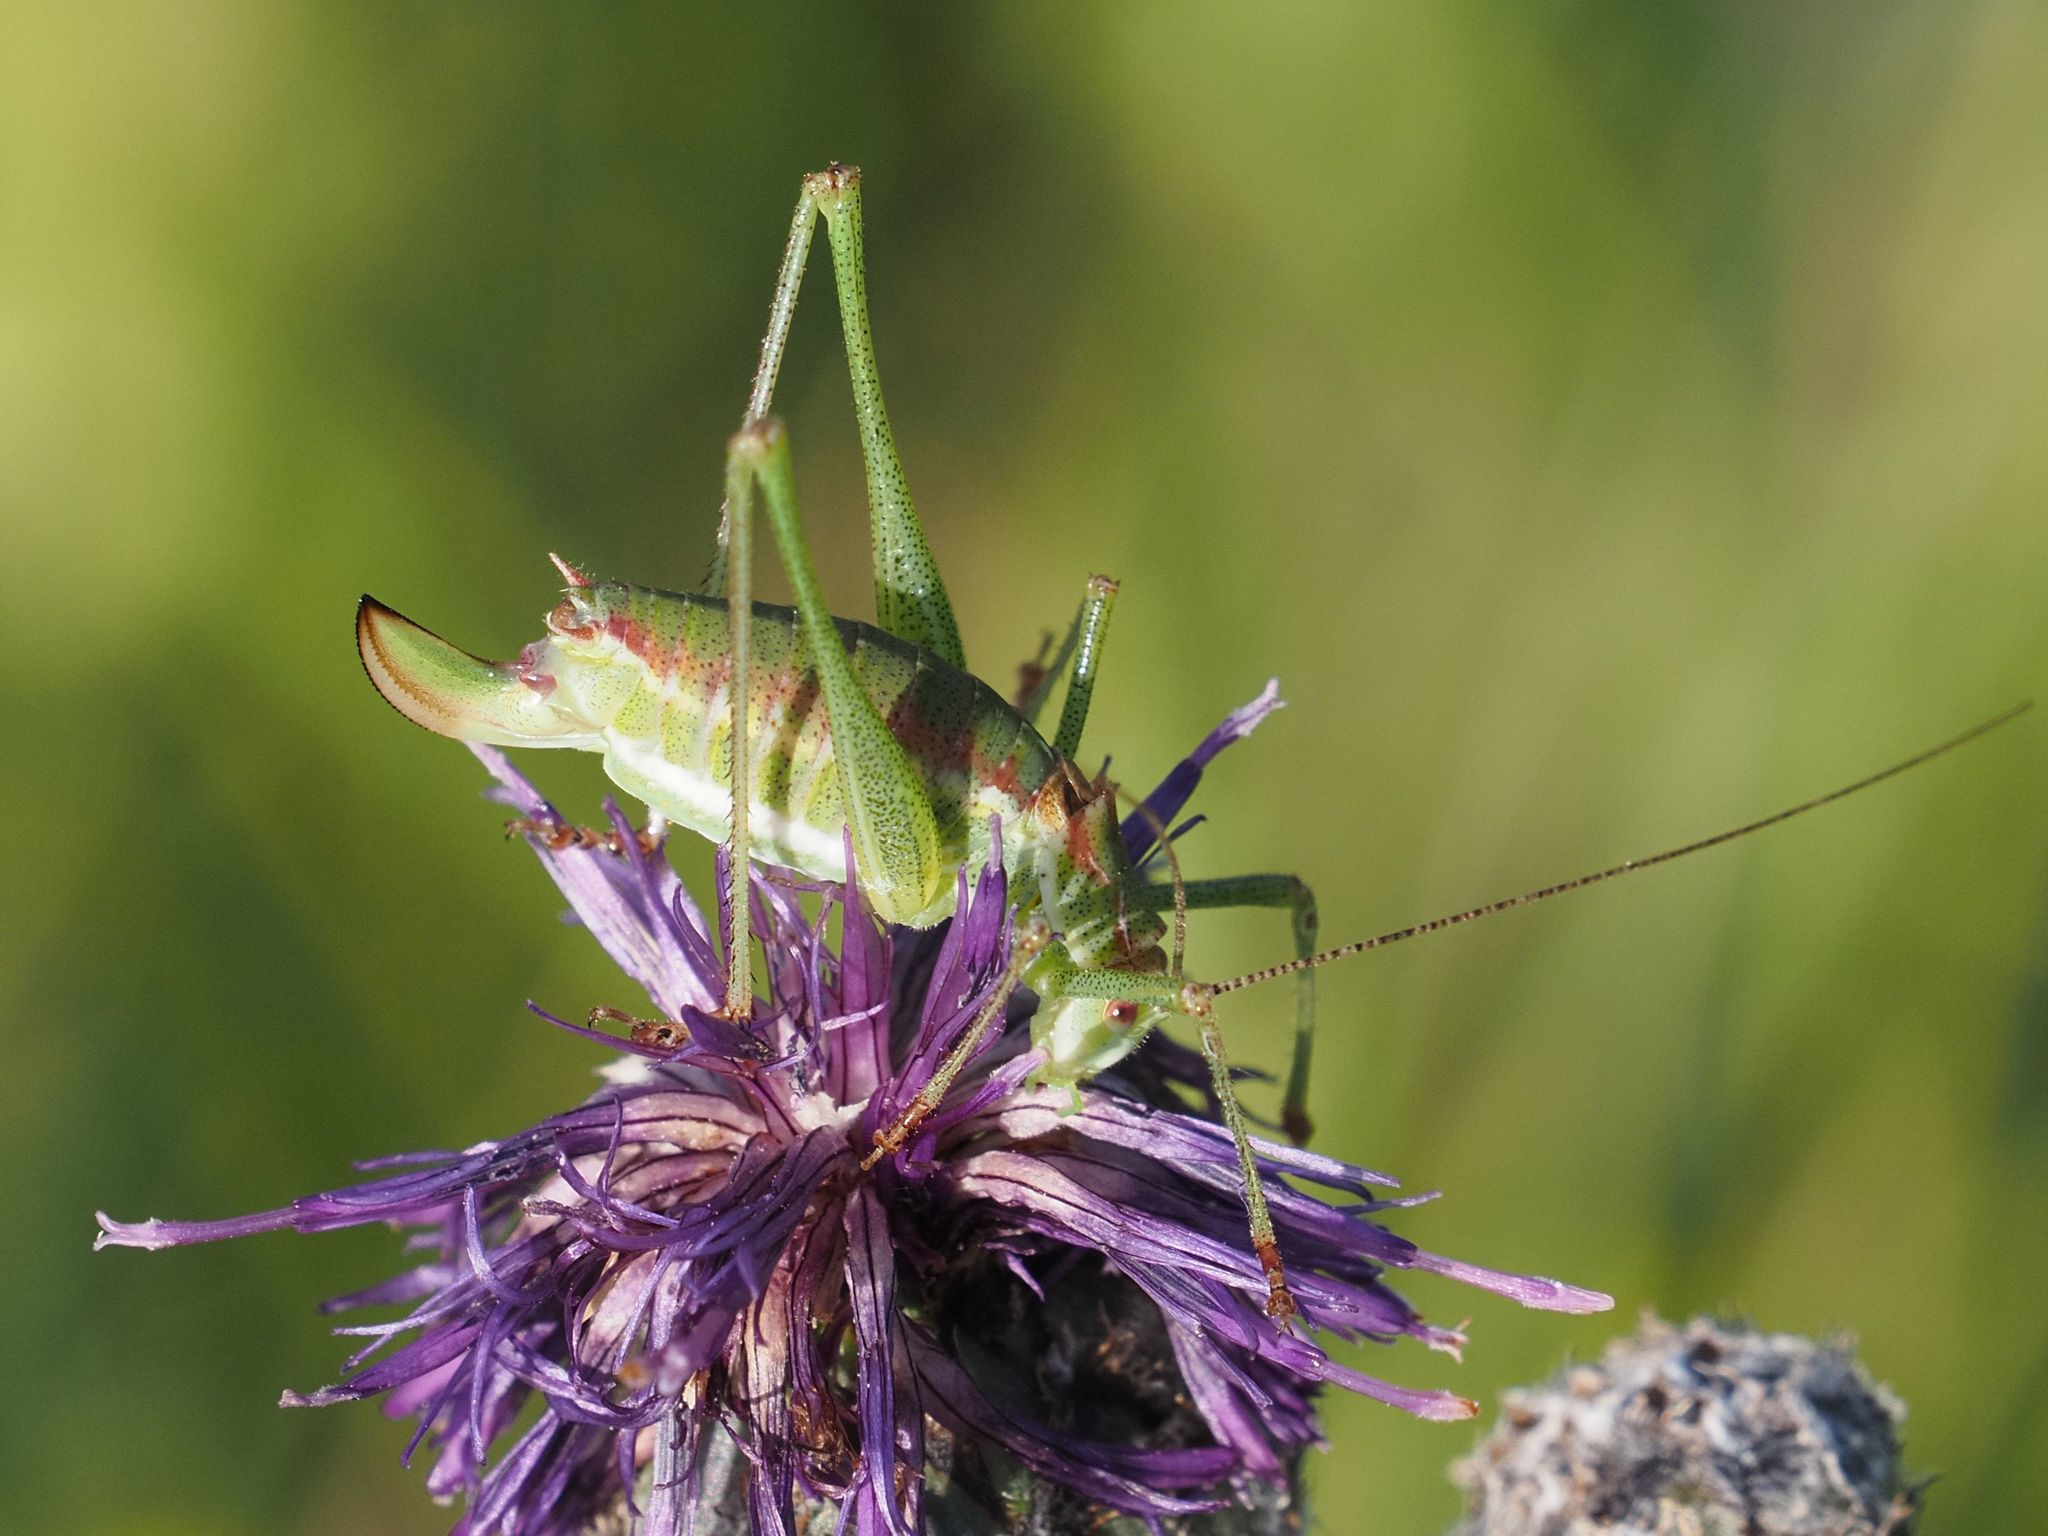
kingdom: Animalia
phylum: Arthropoda
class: Insecta
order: Orthoptera
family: Tettigoniidae
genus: Leptophyes
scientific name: Leptophyes albovittata
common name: Striped bush-cricket
